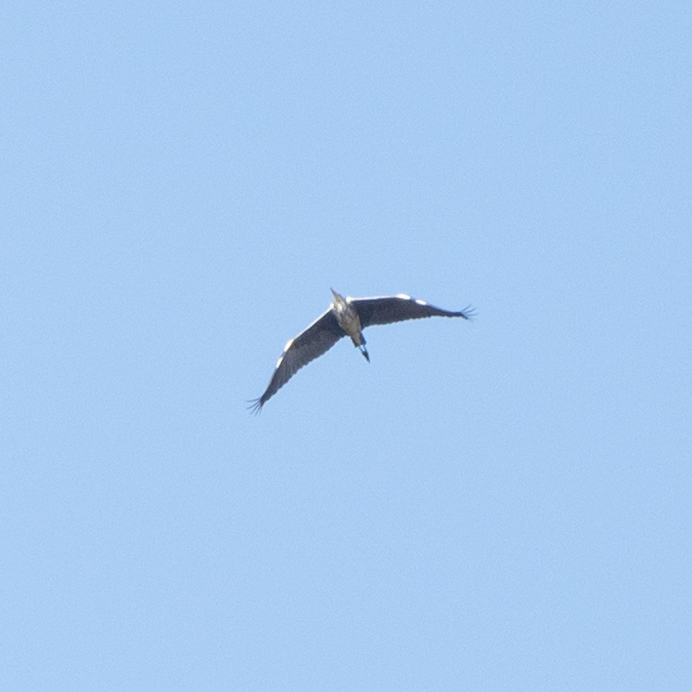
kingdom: Animalia
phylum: Chordata
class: Aves
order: Pelecaniformes
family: Ardeidae
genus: Ardea
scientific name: Ardea cinerea
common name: Grey heron
